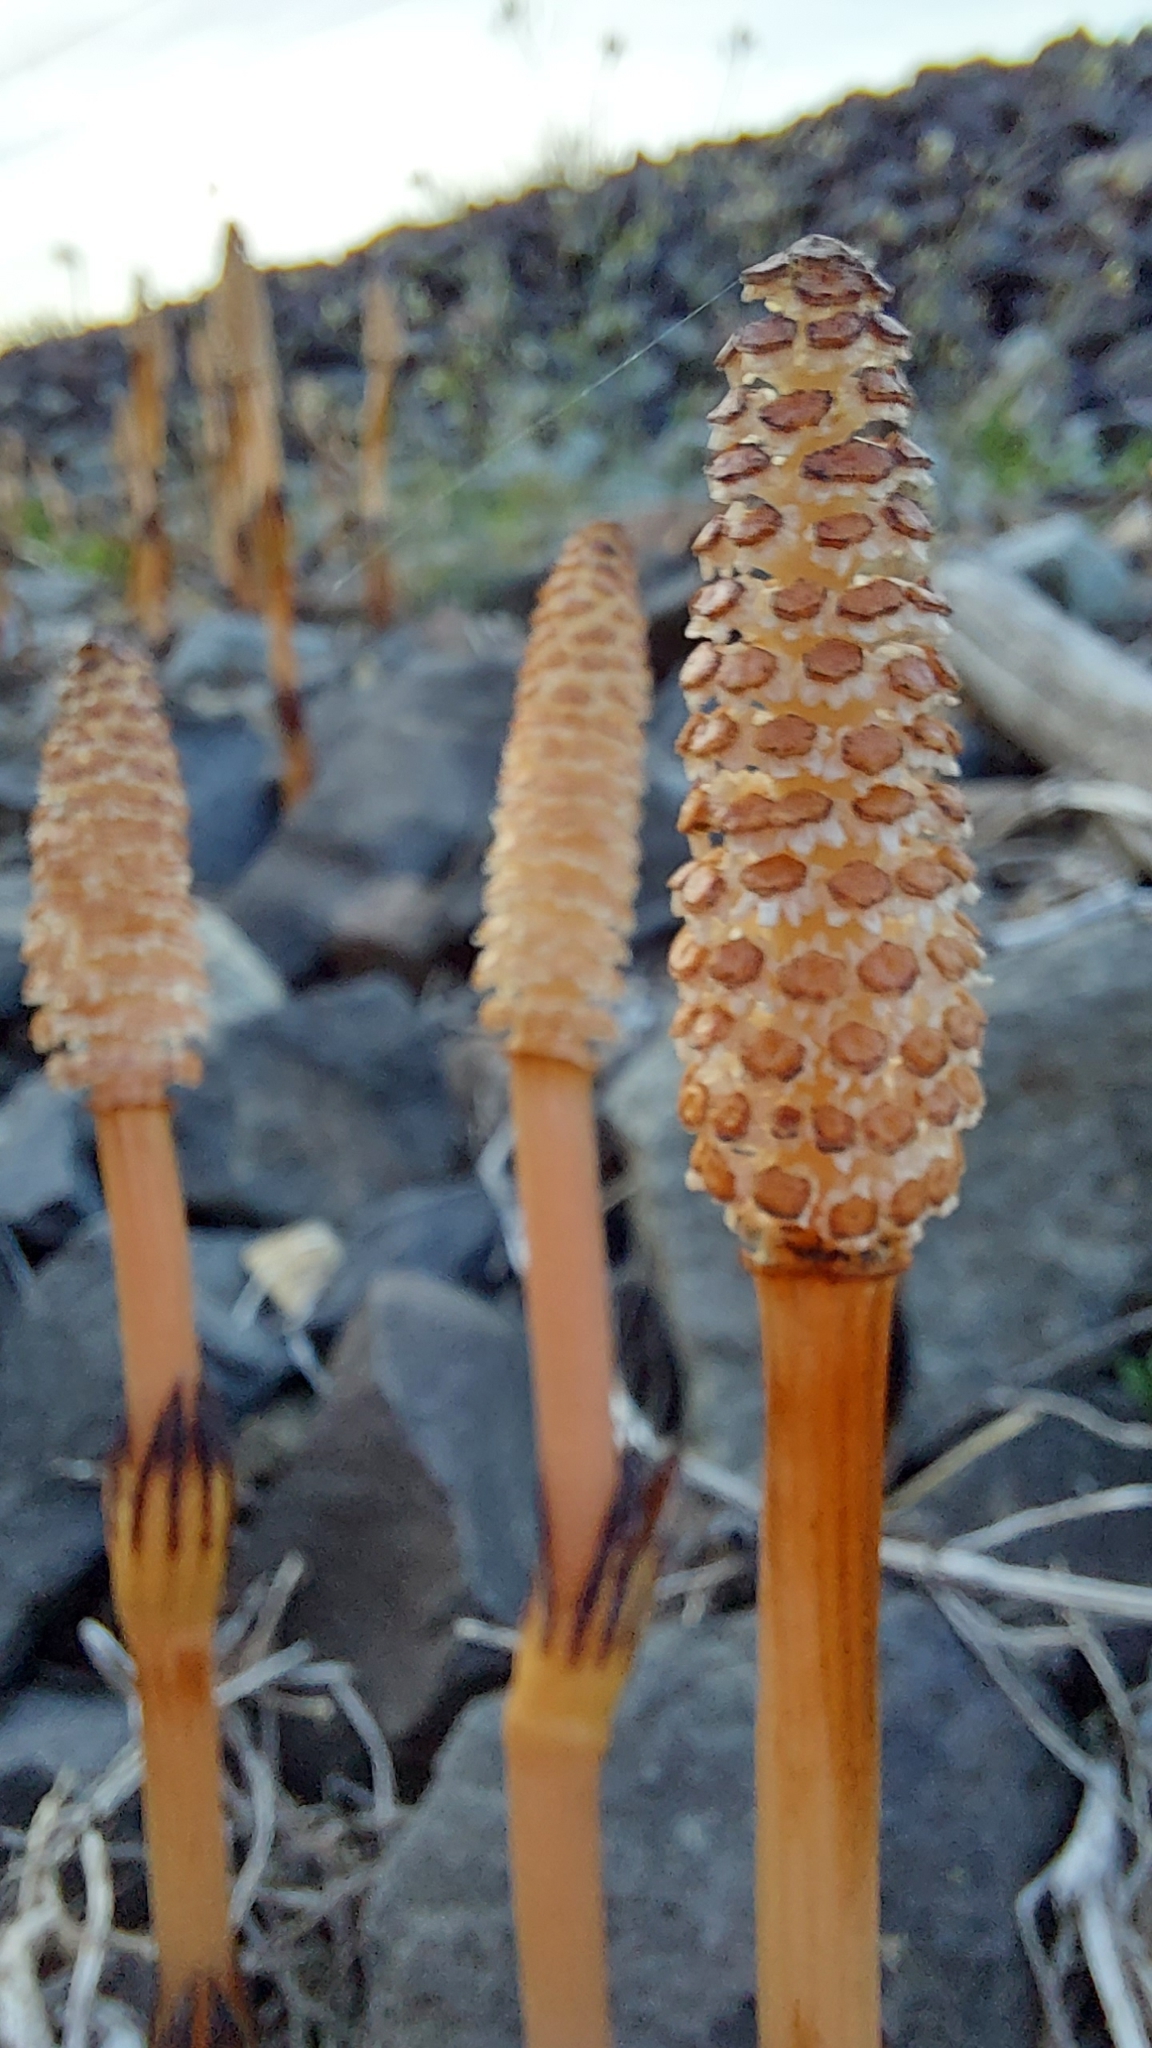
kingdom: Plantae
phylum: Tracheophyta
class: Polypodiopsida
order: Equisetales
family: Equisetaceae
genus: Equisetum
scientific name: Equisetum arvense
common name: Field horsetail
